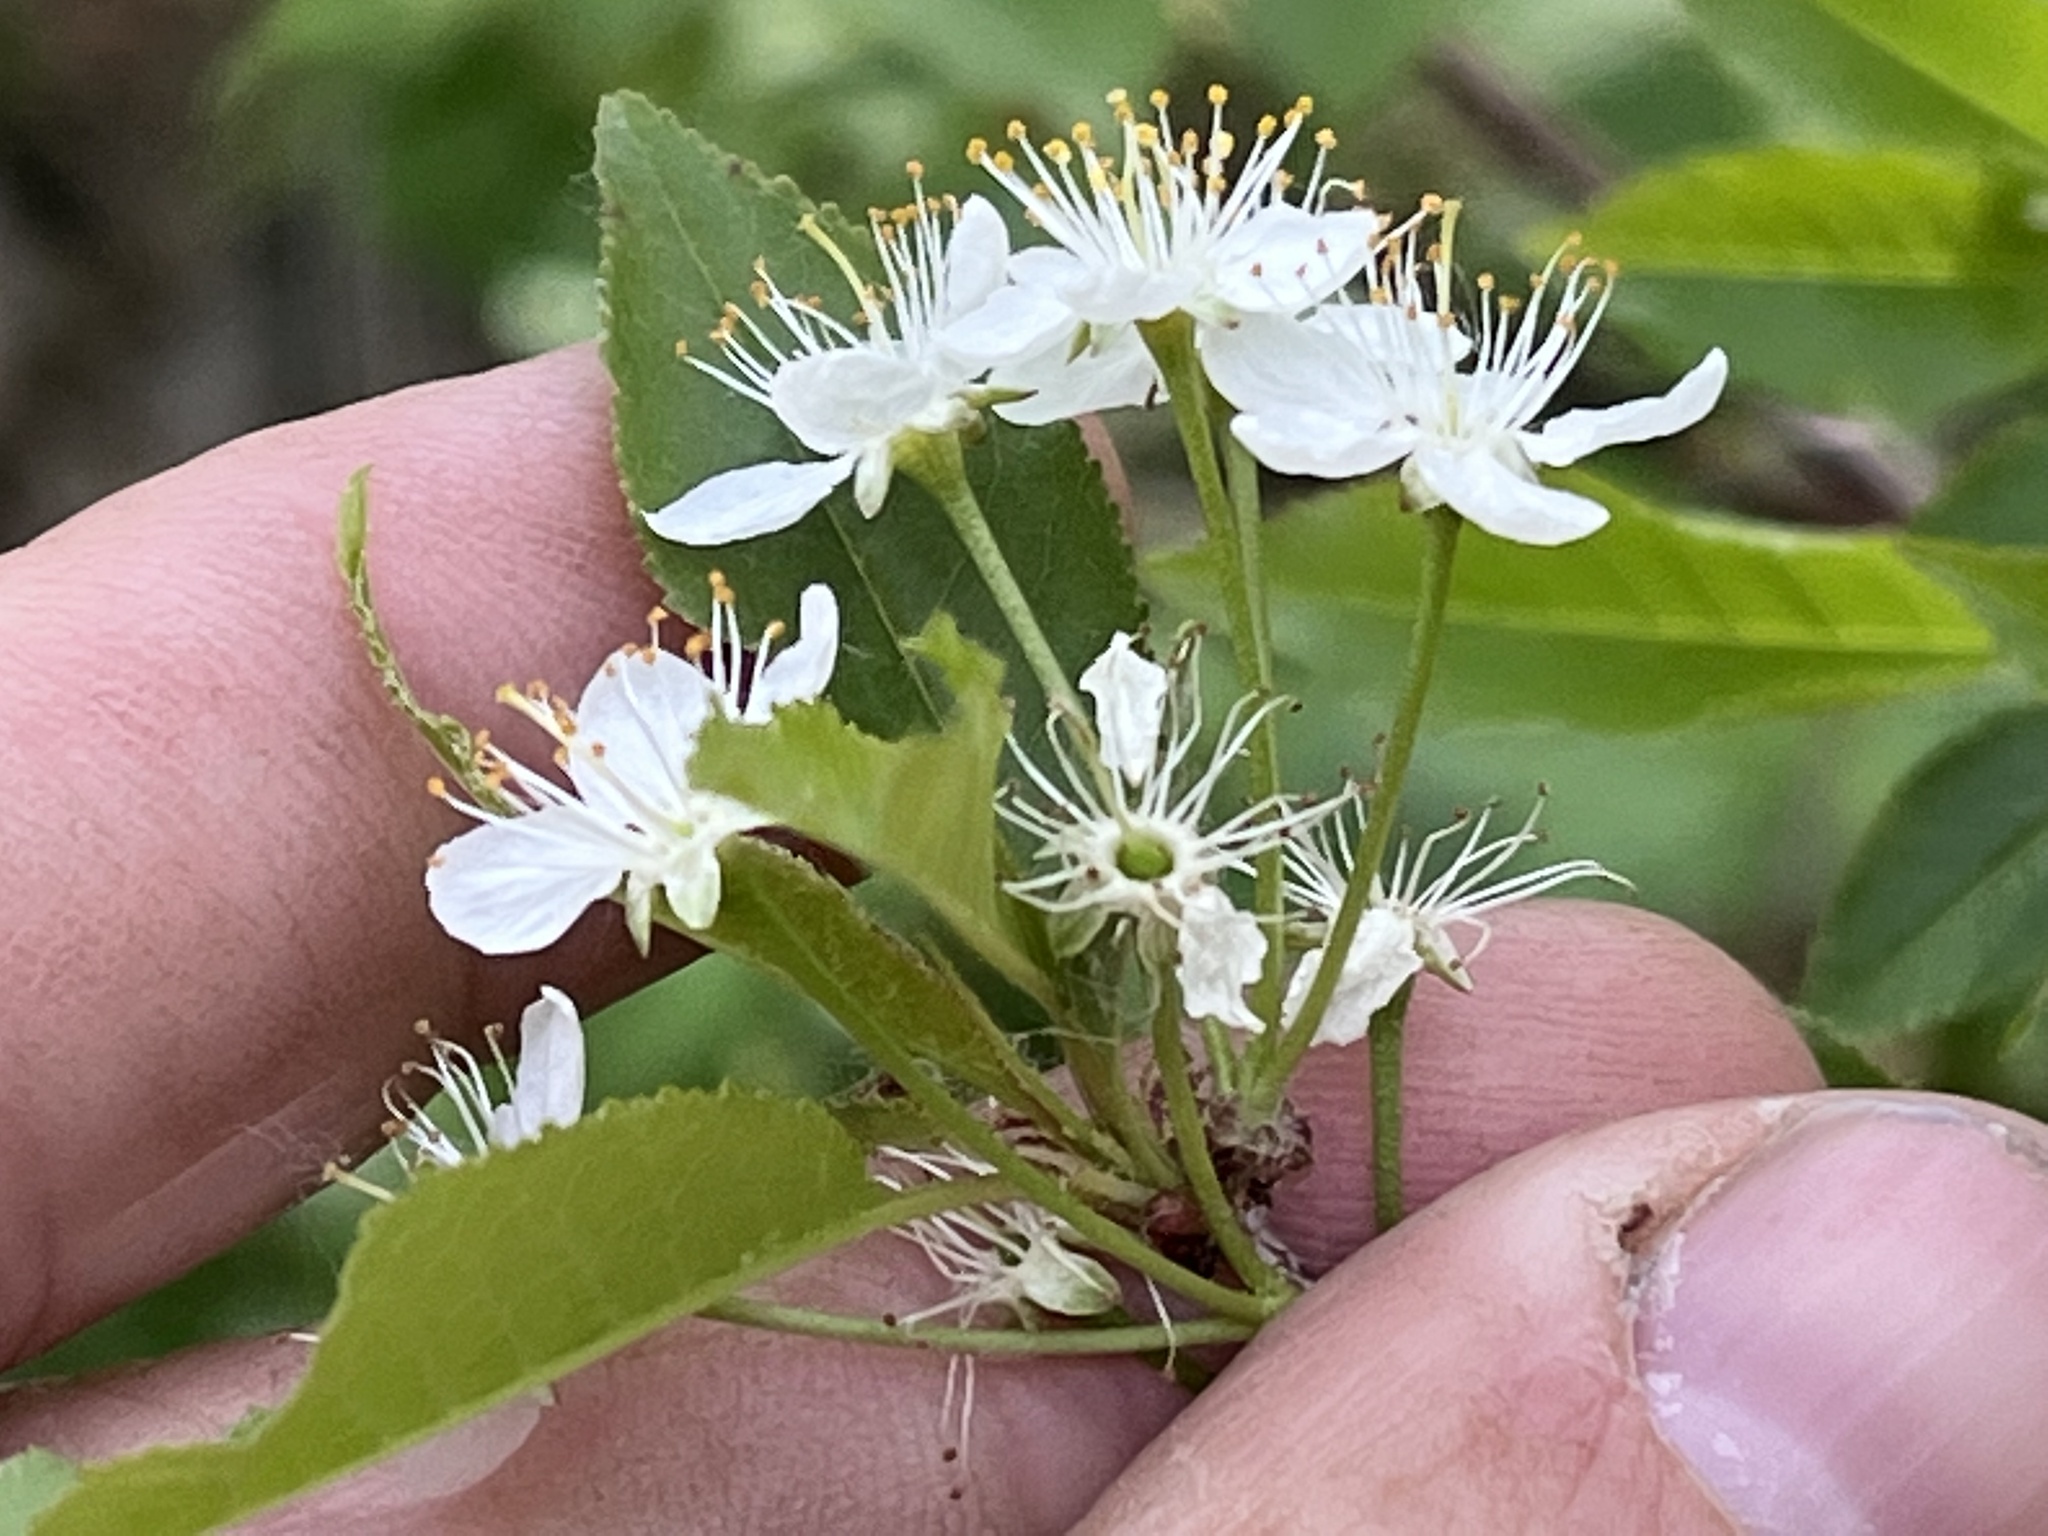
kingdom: Plantae
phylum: Tracheophyta
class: Magnoliopsida
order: Rosales
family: Rosaceae
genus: Prunus
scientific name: Prunus pensylvanica
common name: Pin cherry
